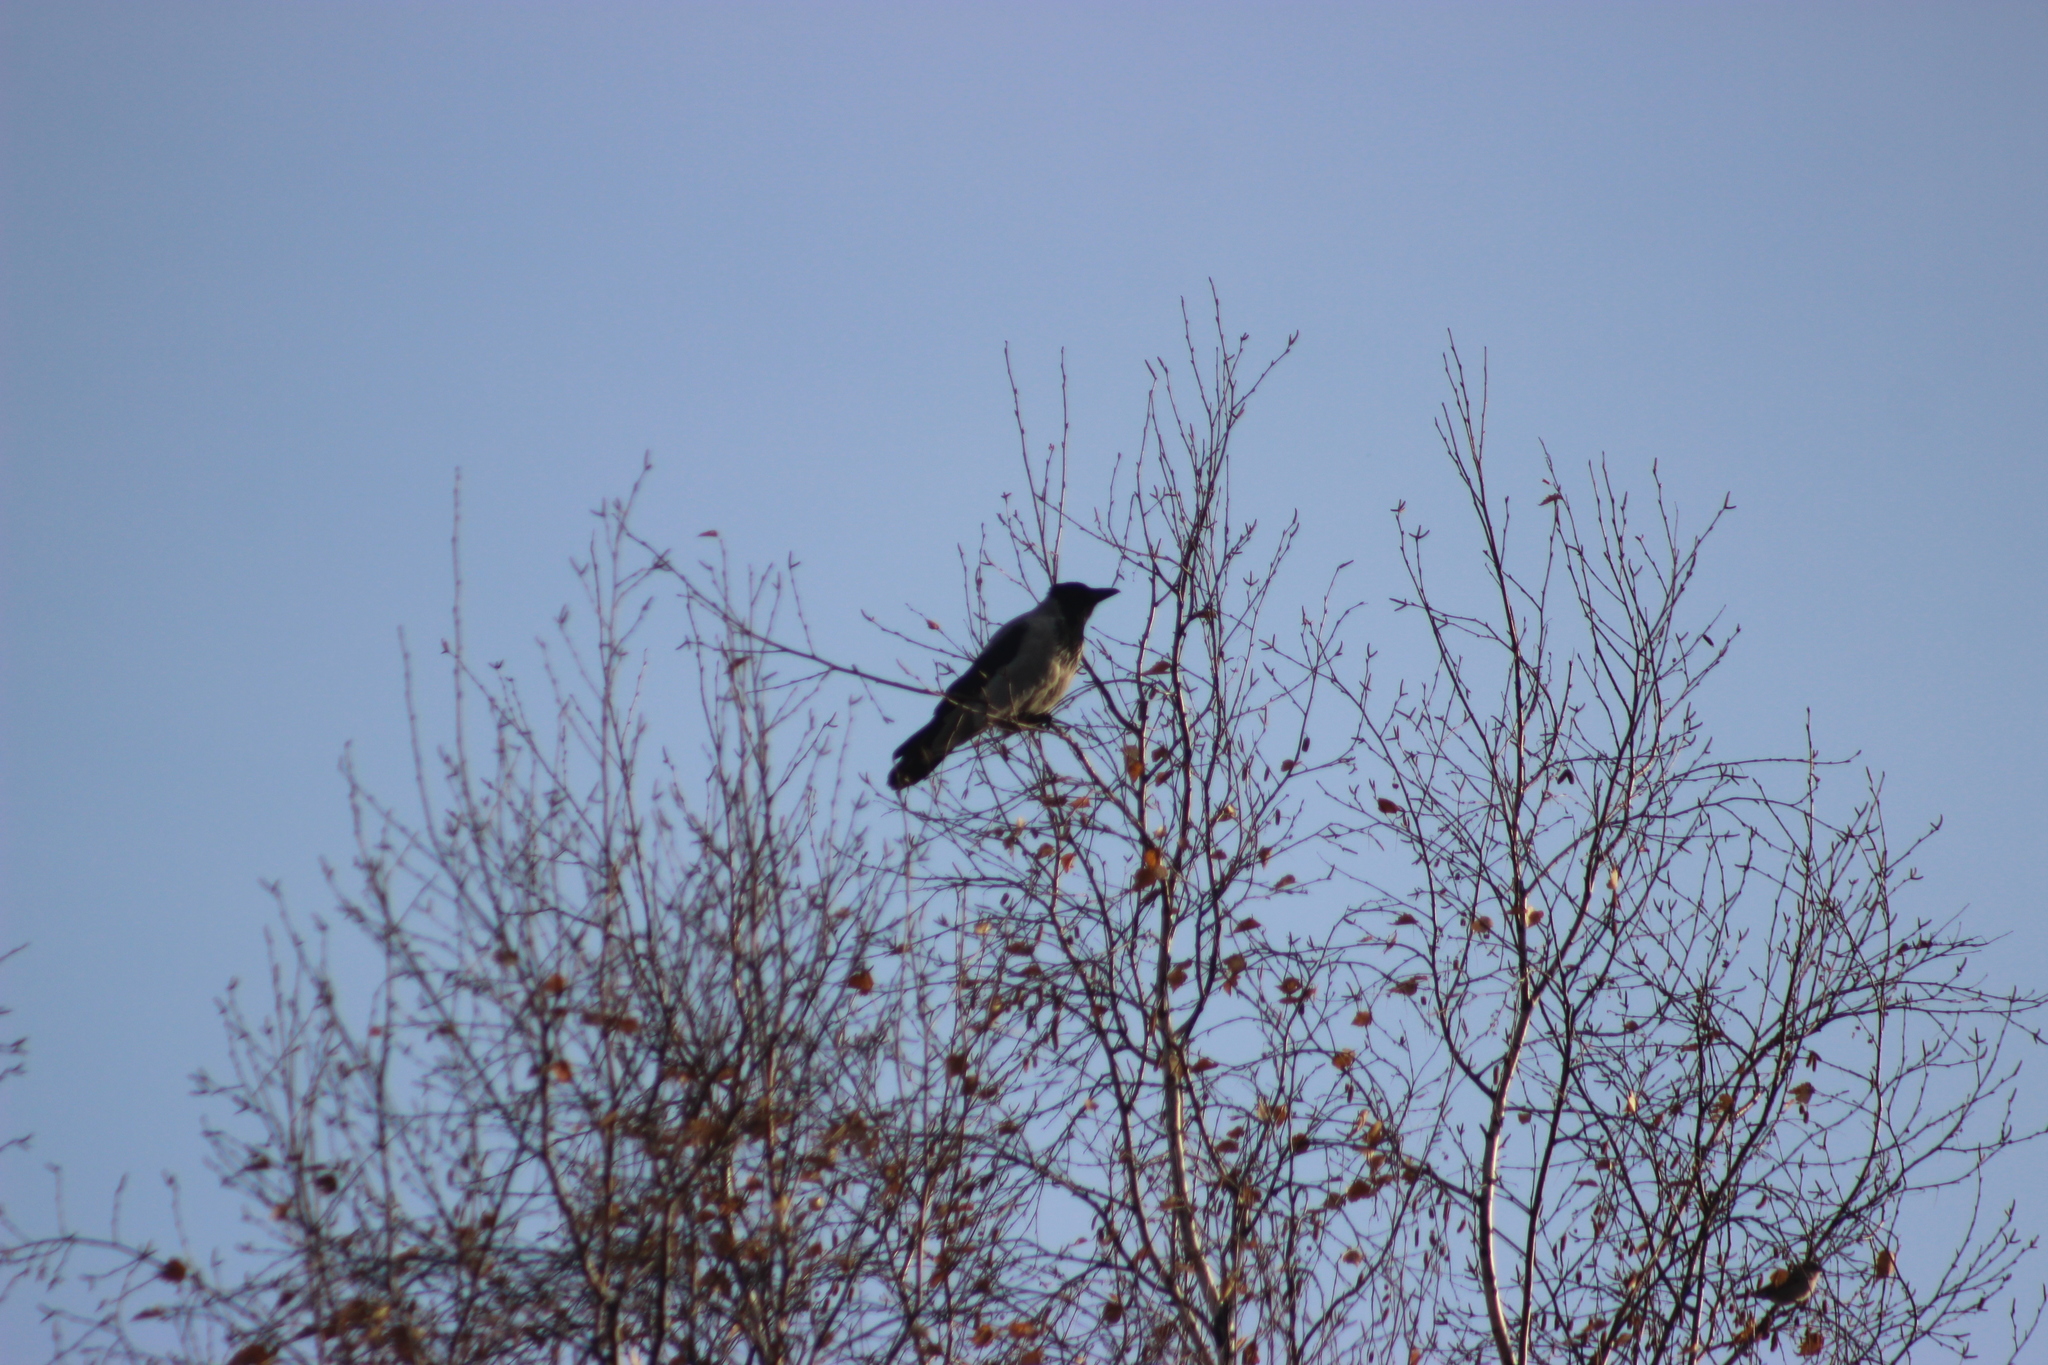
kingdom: Animalia
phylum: Chordata
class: Aves
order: Passeriformes
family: Corvidae
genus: Corvus
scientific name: Corvus cornix
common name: Hooded crow
